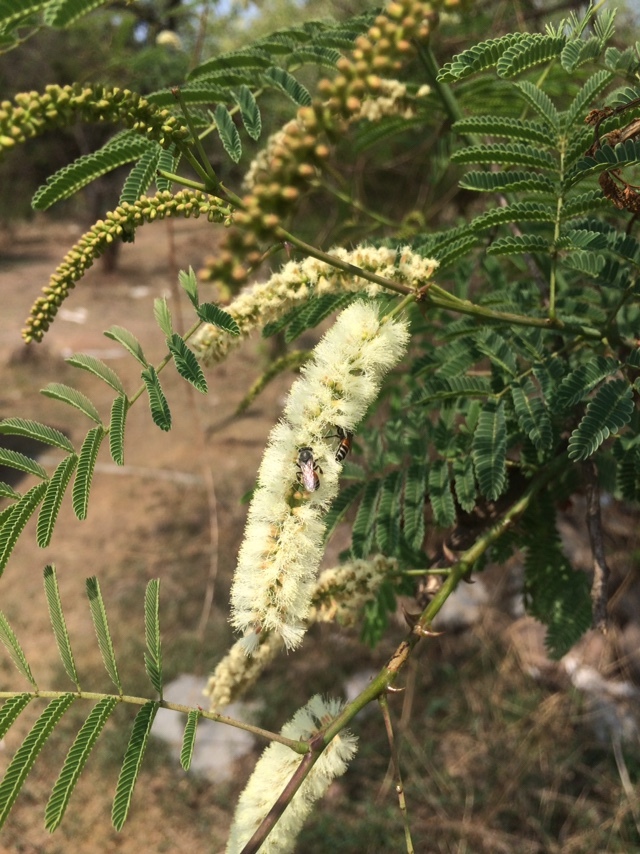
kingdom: Animalia
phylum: Arthropoda
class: Insecta
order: Hymenoptera
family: Apidae
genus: Apis
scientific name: Apis florea
